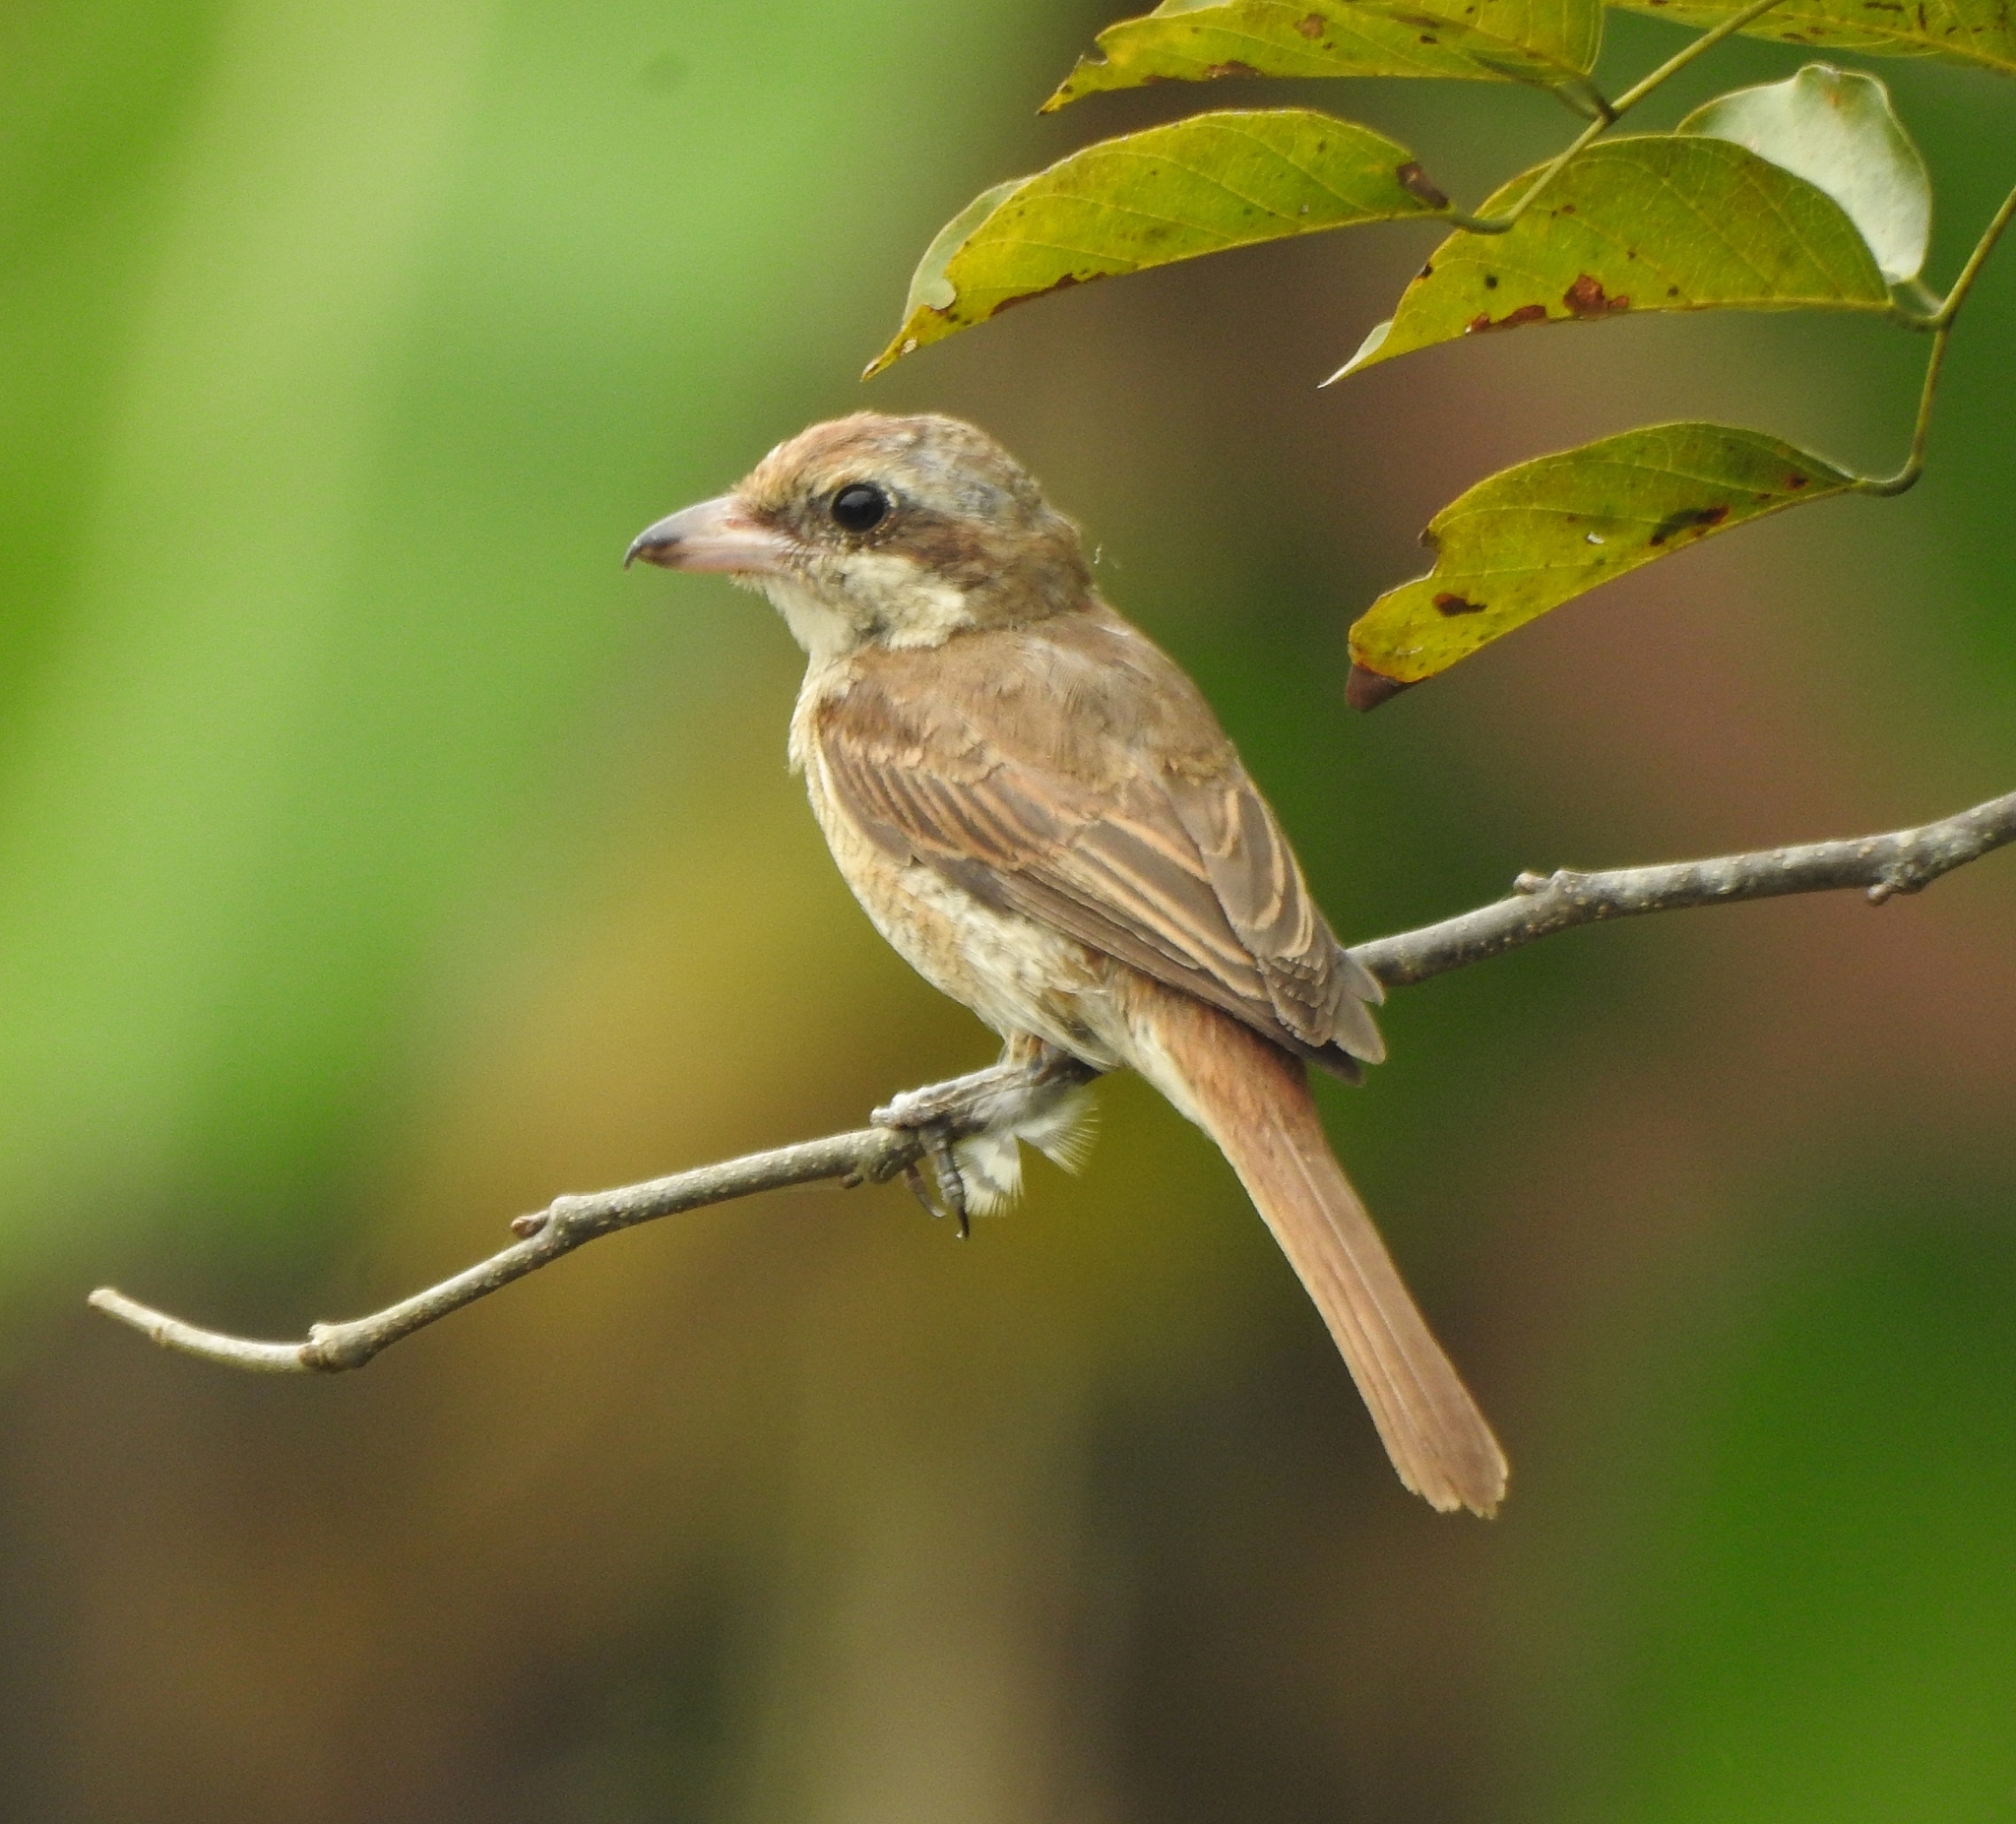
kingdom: Animalia
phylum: Chordata
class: Aves
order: Passeriformes
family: Laniidae
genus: Lanius
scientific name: Lanius cristatus
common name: Brown shrike
